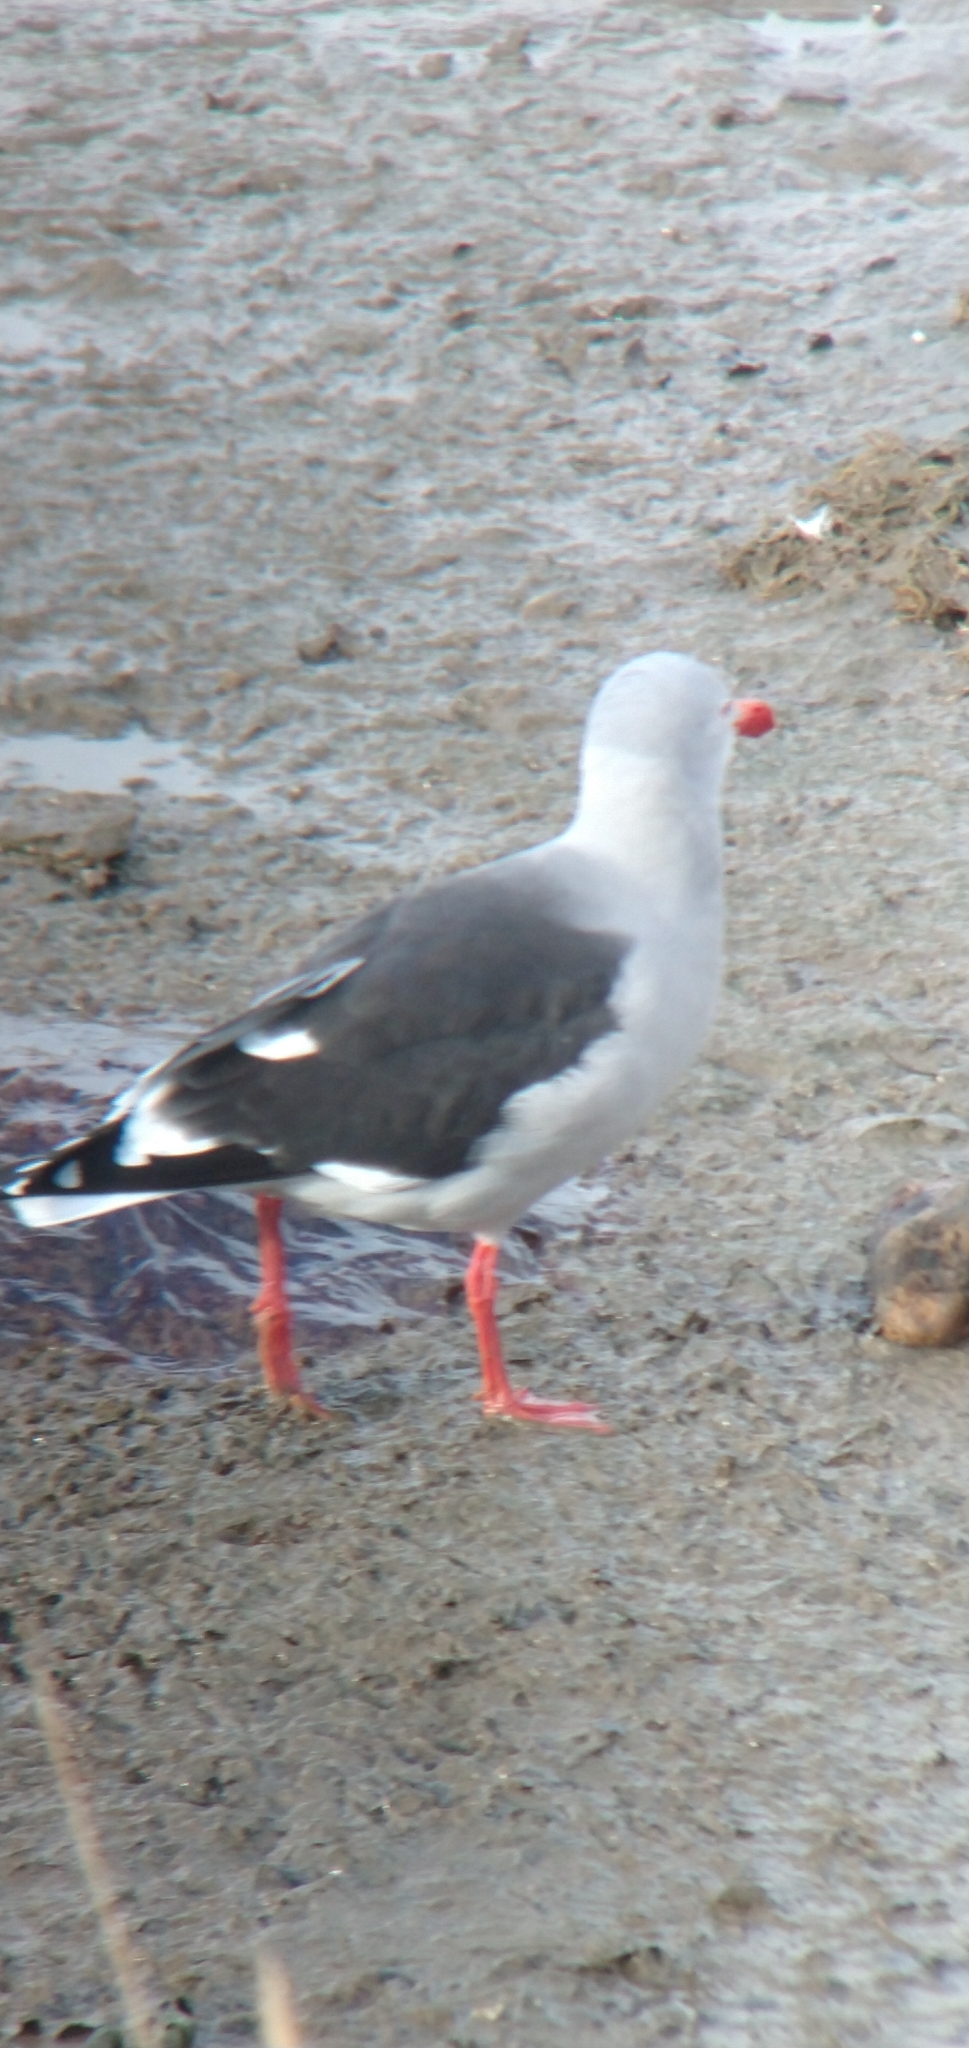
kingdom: Animalia
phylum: Chordata
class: Aves
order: Charadriiformes
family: Laridae
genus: Leucophaeus
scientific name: Leucophaeus scoresbii
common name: Dolphin gull
